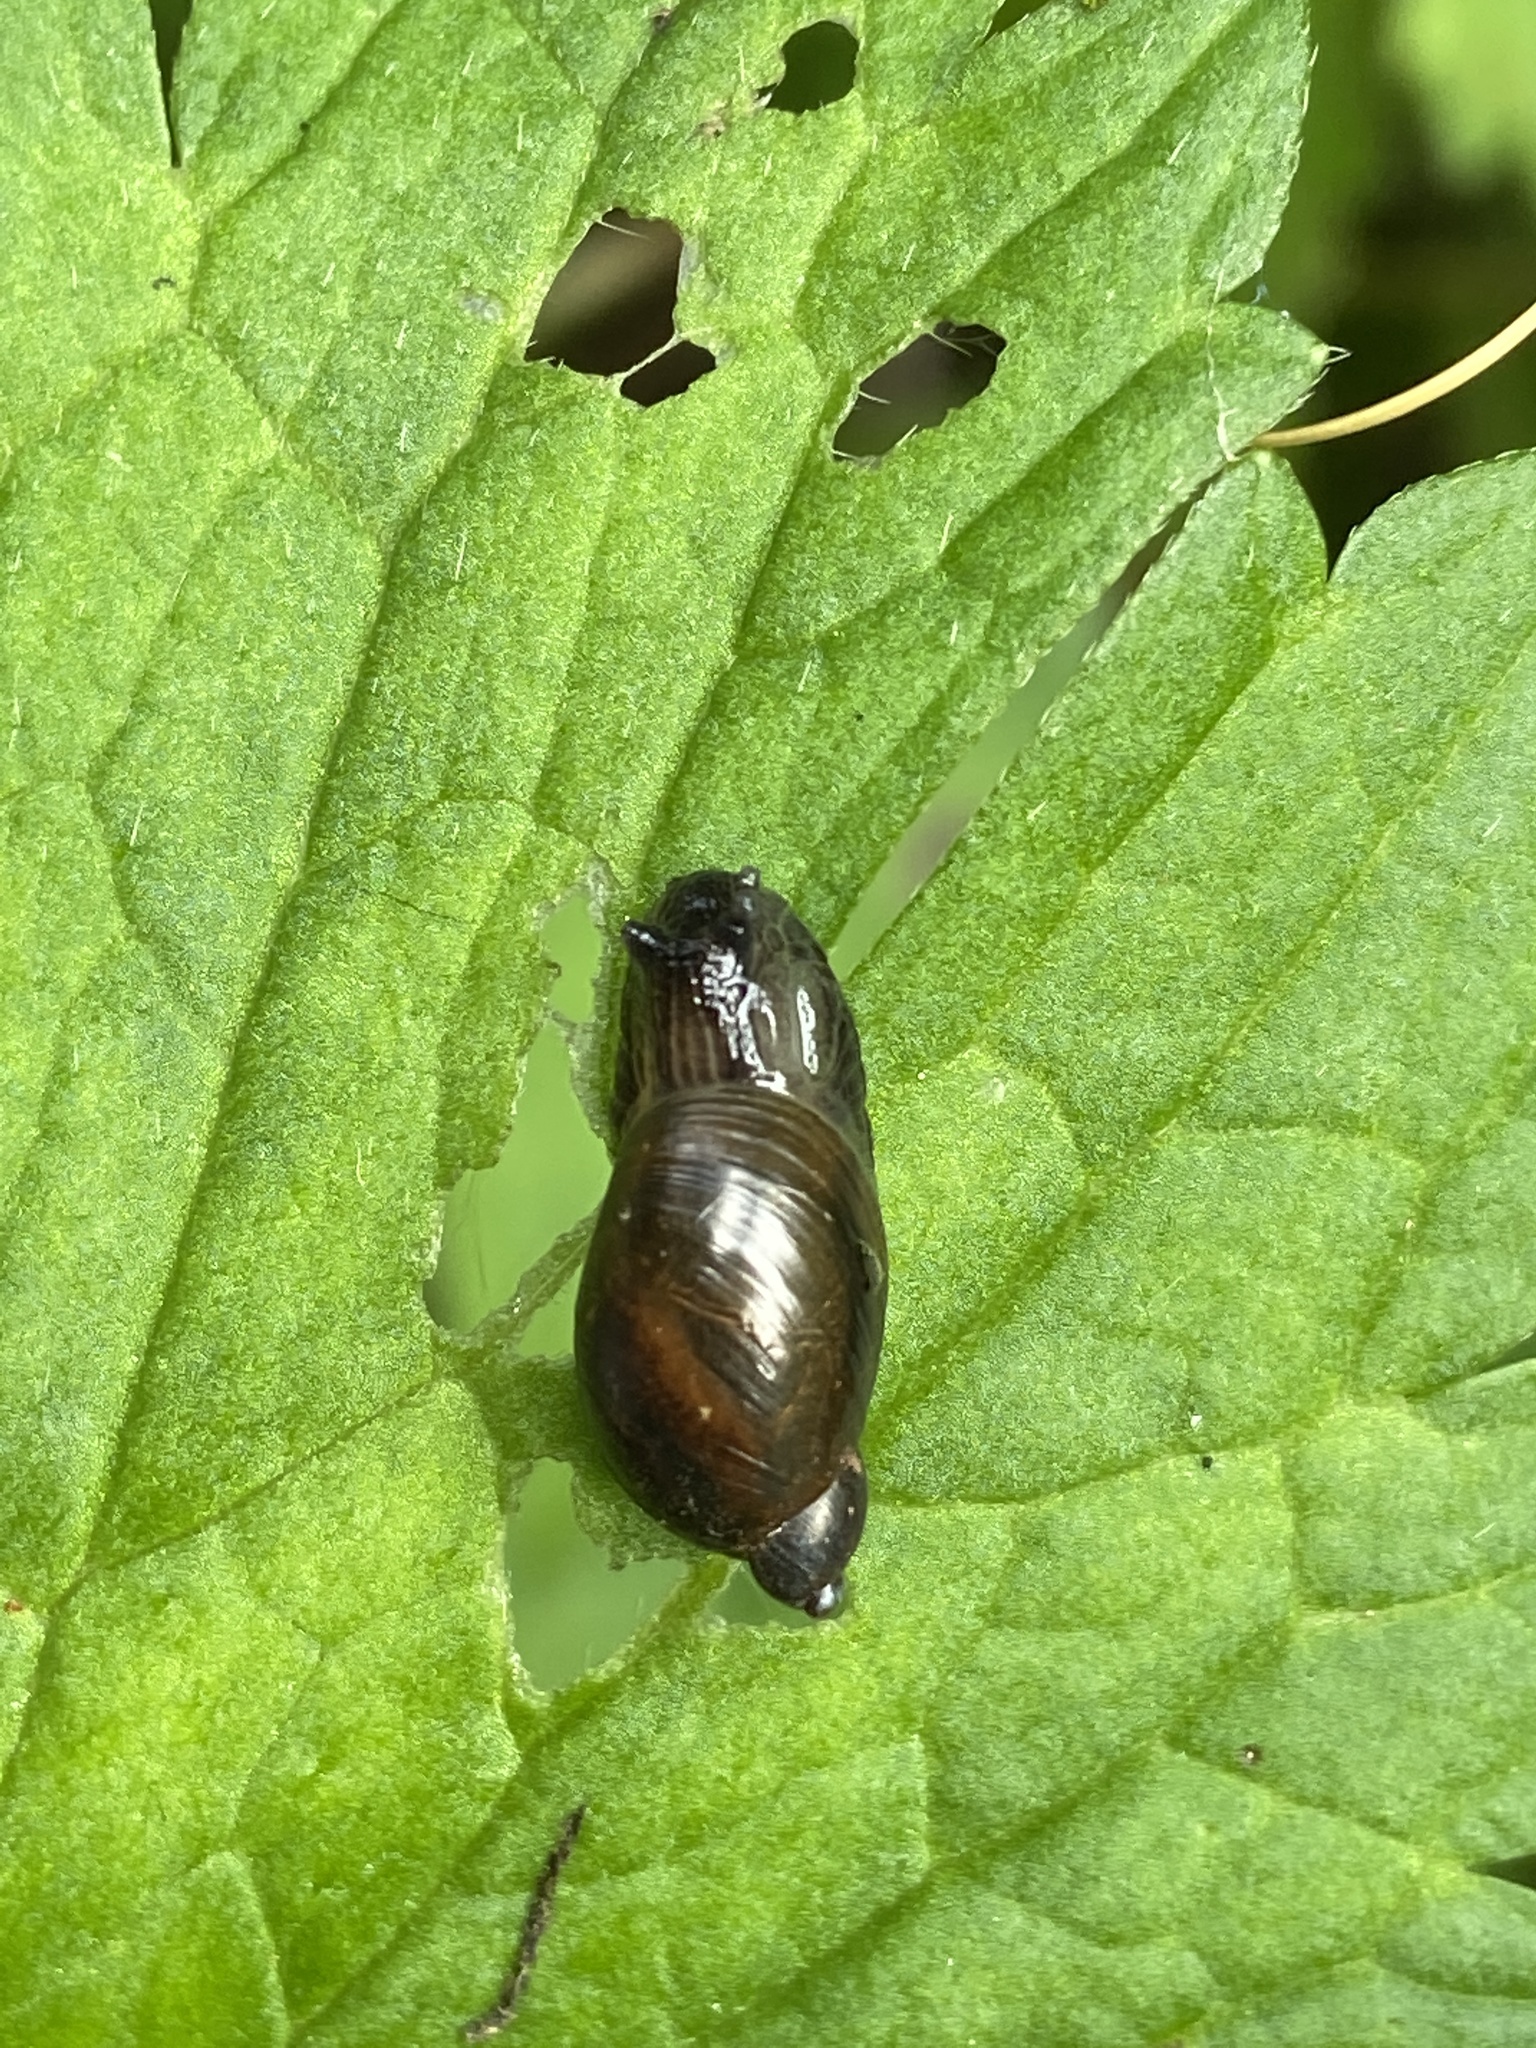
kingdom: Animalia
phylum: Mollusca
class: Gastropoda
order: Stylommatophora
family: Succineidae
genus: Succinea
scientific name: Succinea putris
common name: European ambersnail
